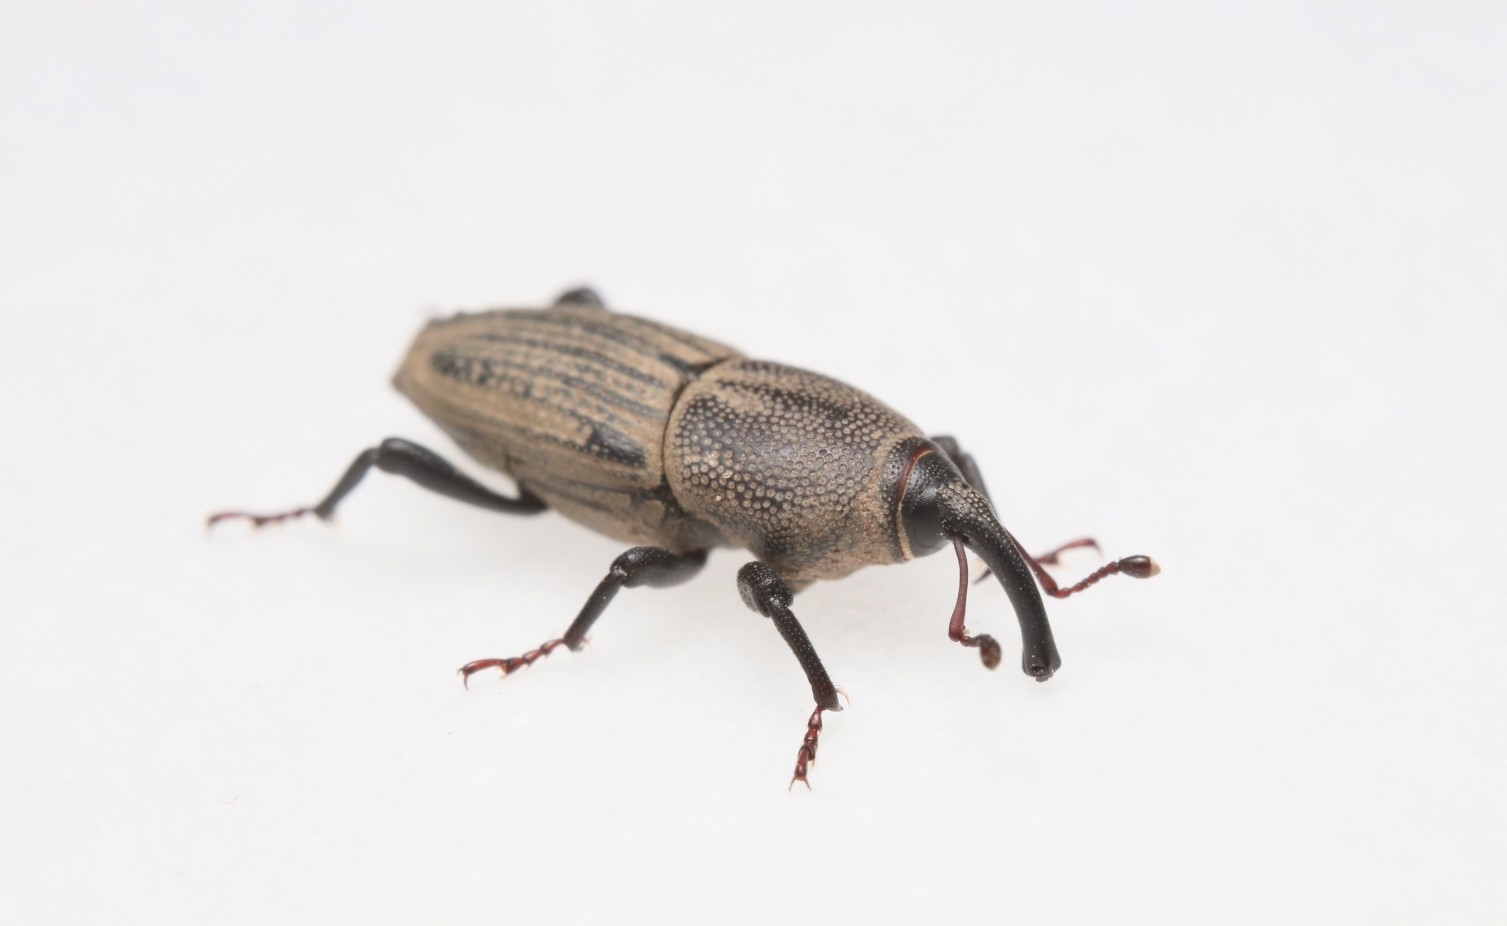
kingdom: Animalia
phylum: Arthropoda
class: Insecta
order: Coleoptera
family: Dryophthoridae
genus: Sphenophorus
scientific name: Sphenophorus interstitialis
